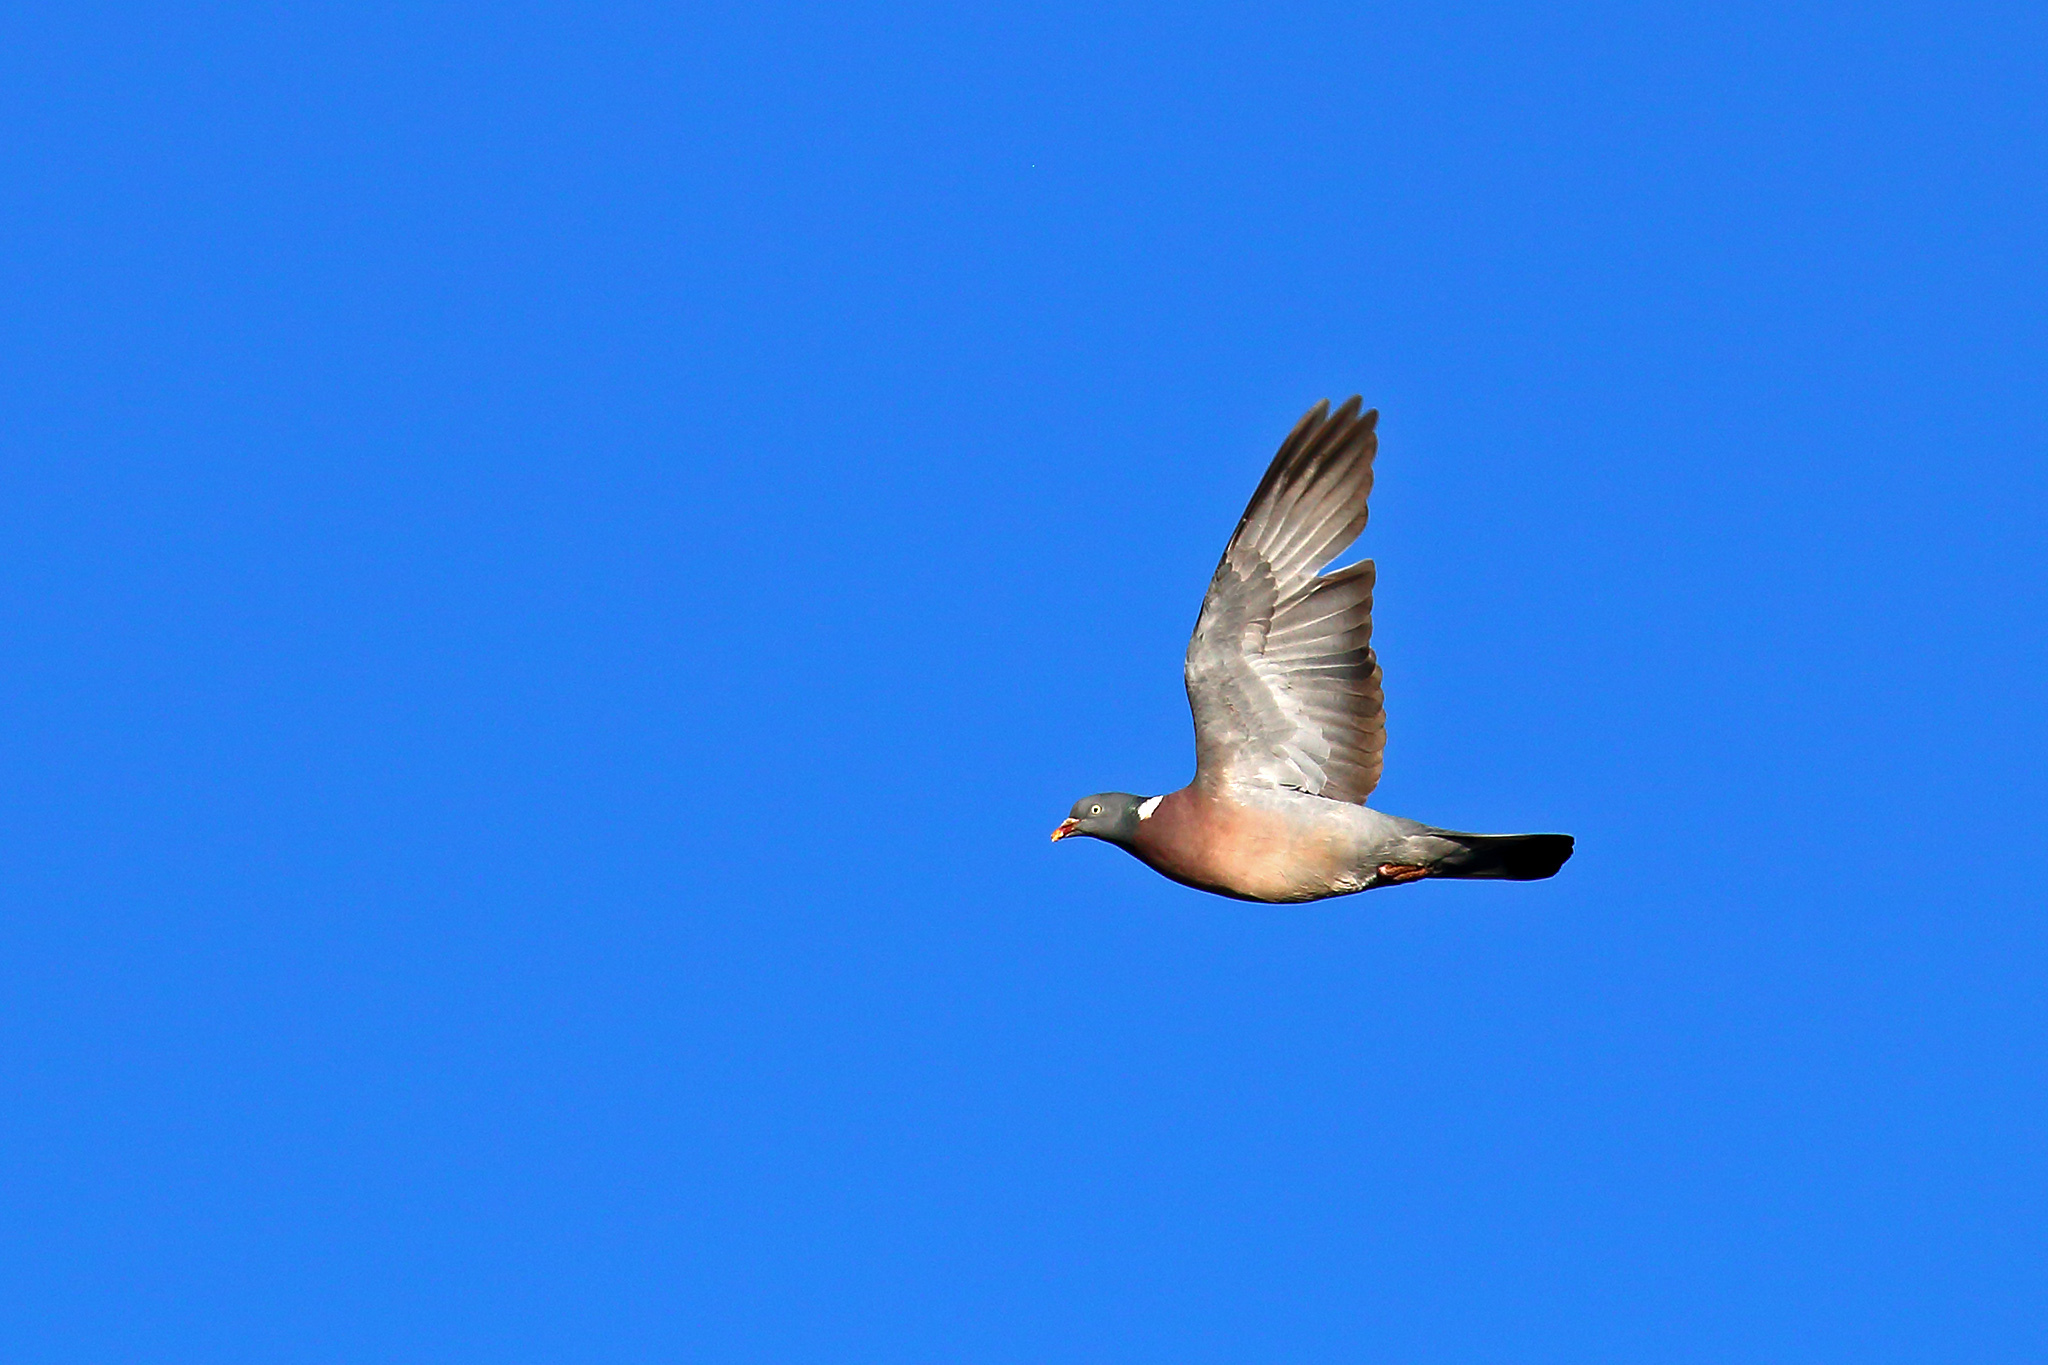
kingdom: Animalia
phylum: Chordata
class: Aves
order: Columbiformes
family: Columbidae
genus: Columba
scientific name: Columba palumbus
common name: Common wood pigeon
